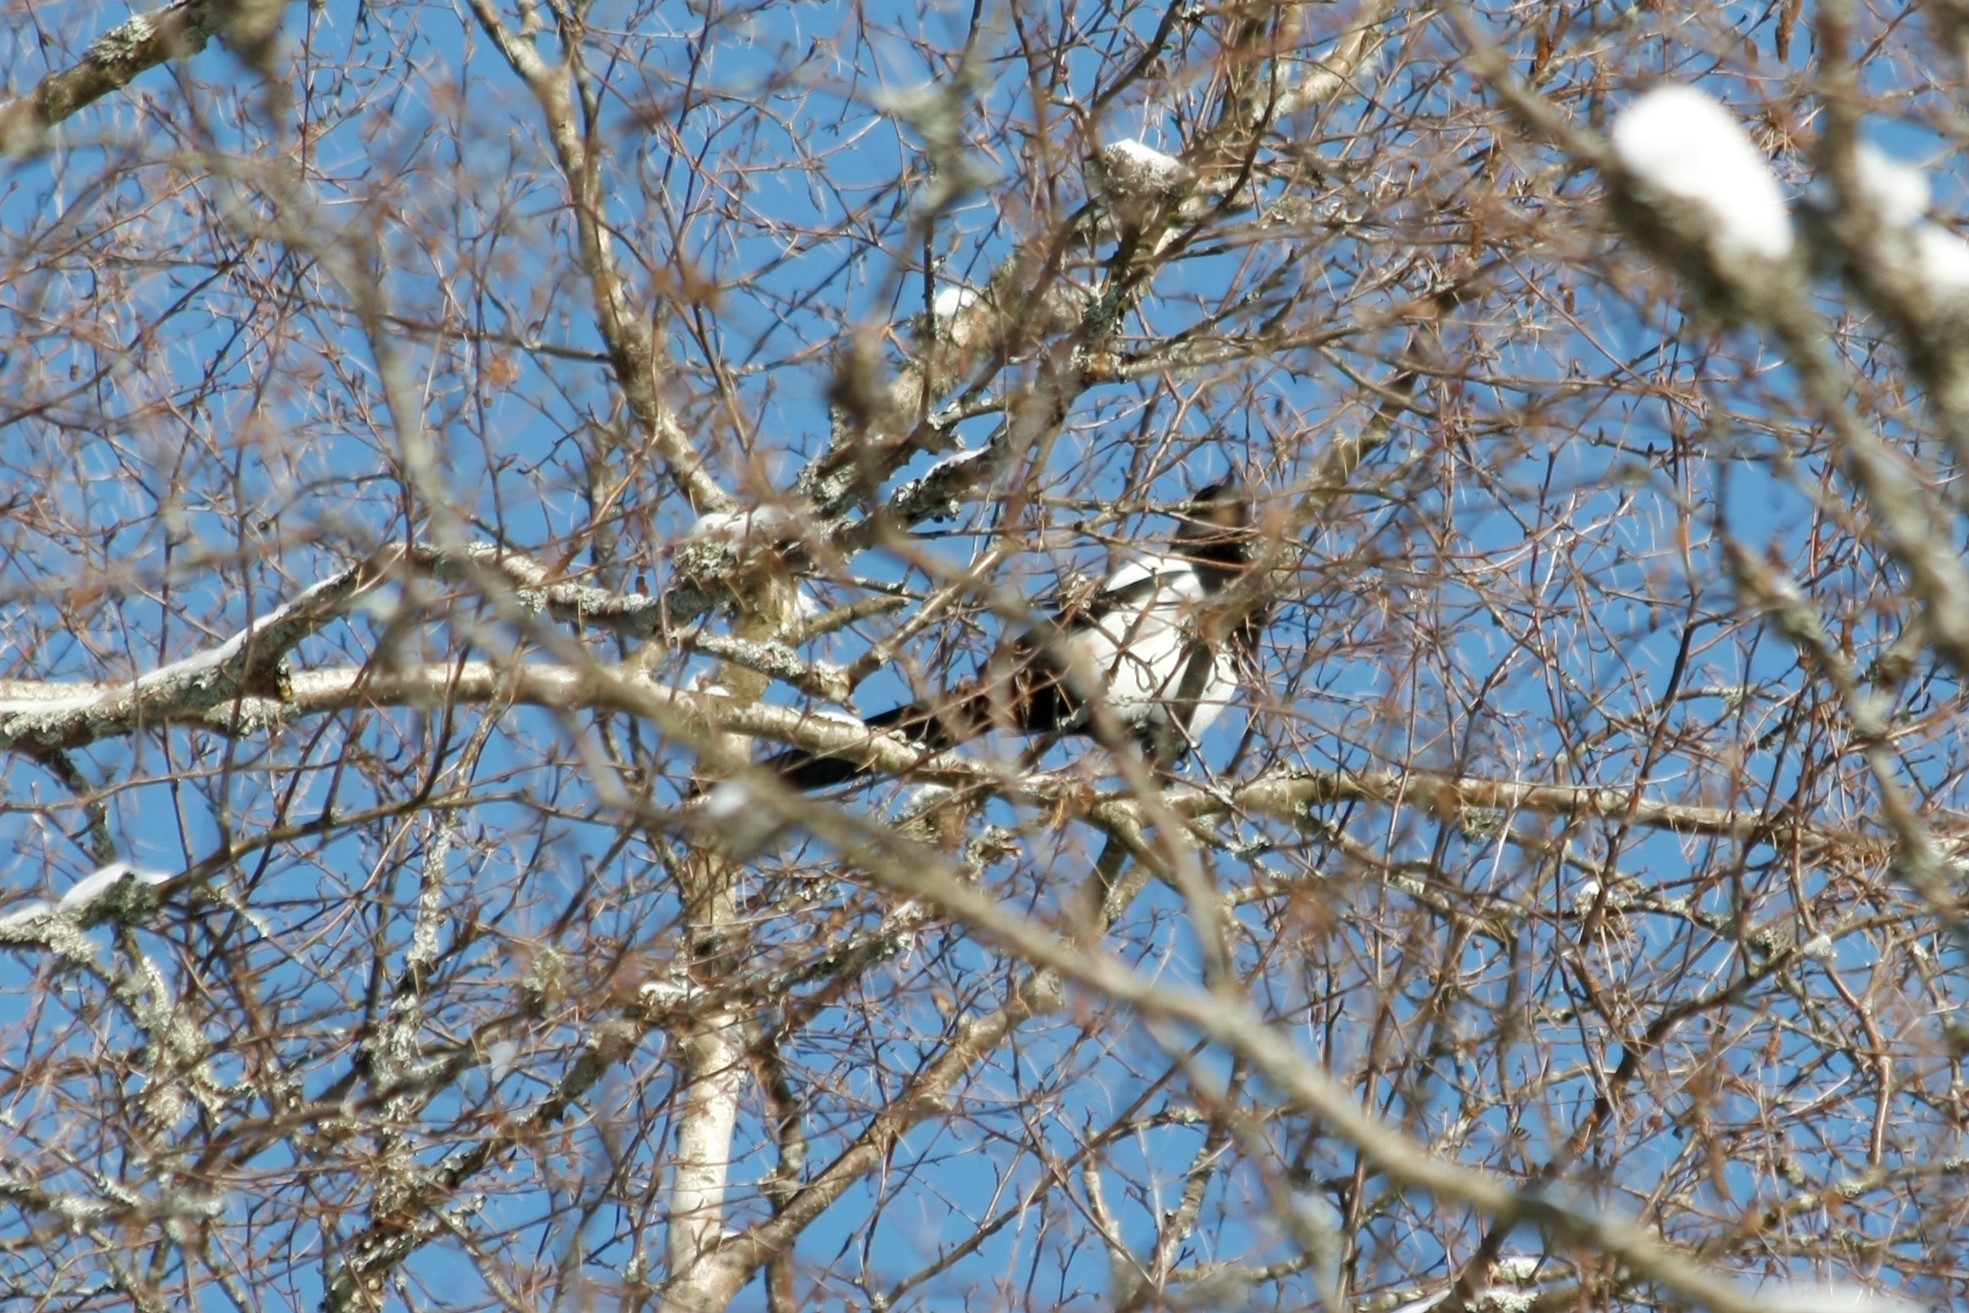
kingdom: Animalia
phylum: Chordata
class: Aves
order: Passeriformes
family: Corvidae
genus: Pica
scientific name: Pica pica
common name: Eurasian magpie
